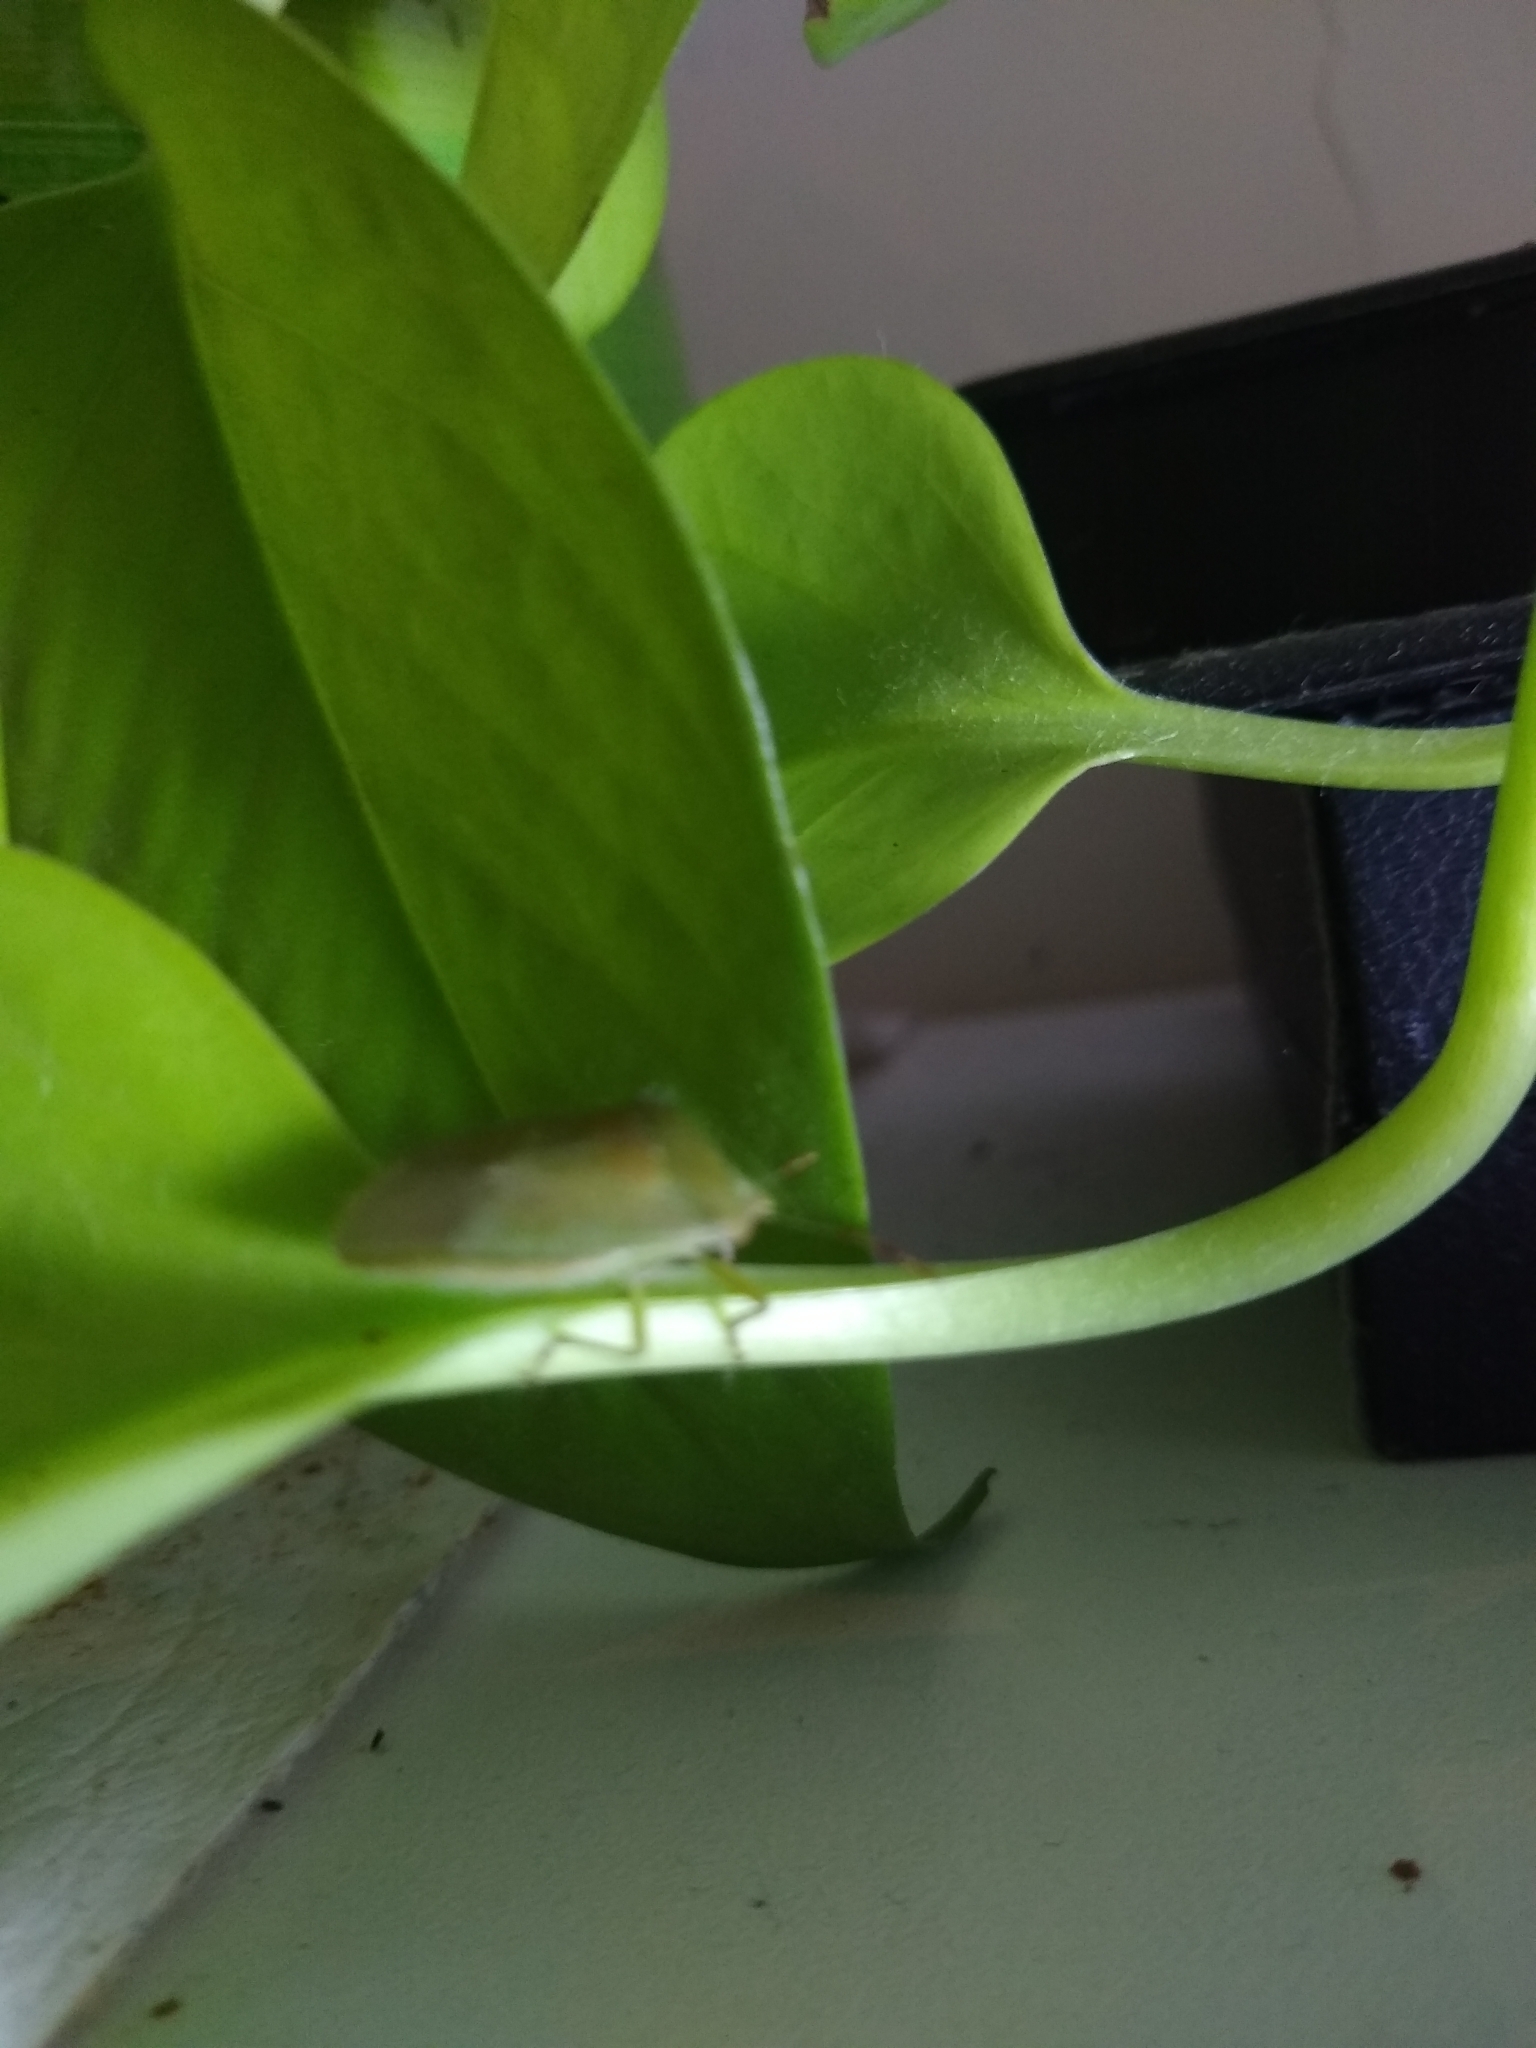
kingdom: Animalia
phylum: Arthropoda
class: Insecta
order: Hemiptera
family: Pentatomidae
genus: Nezara
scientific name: Nezara viridula
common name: Southern green stink bug
